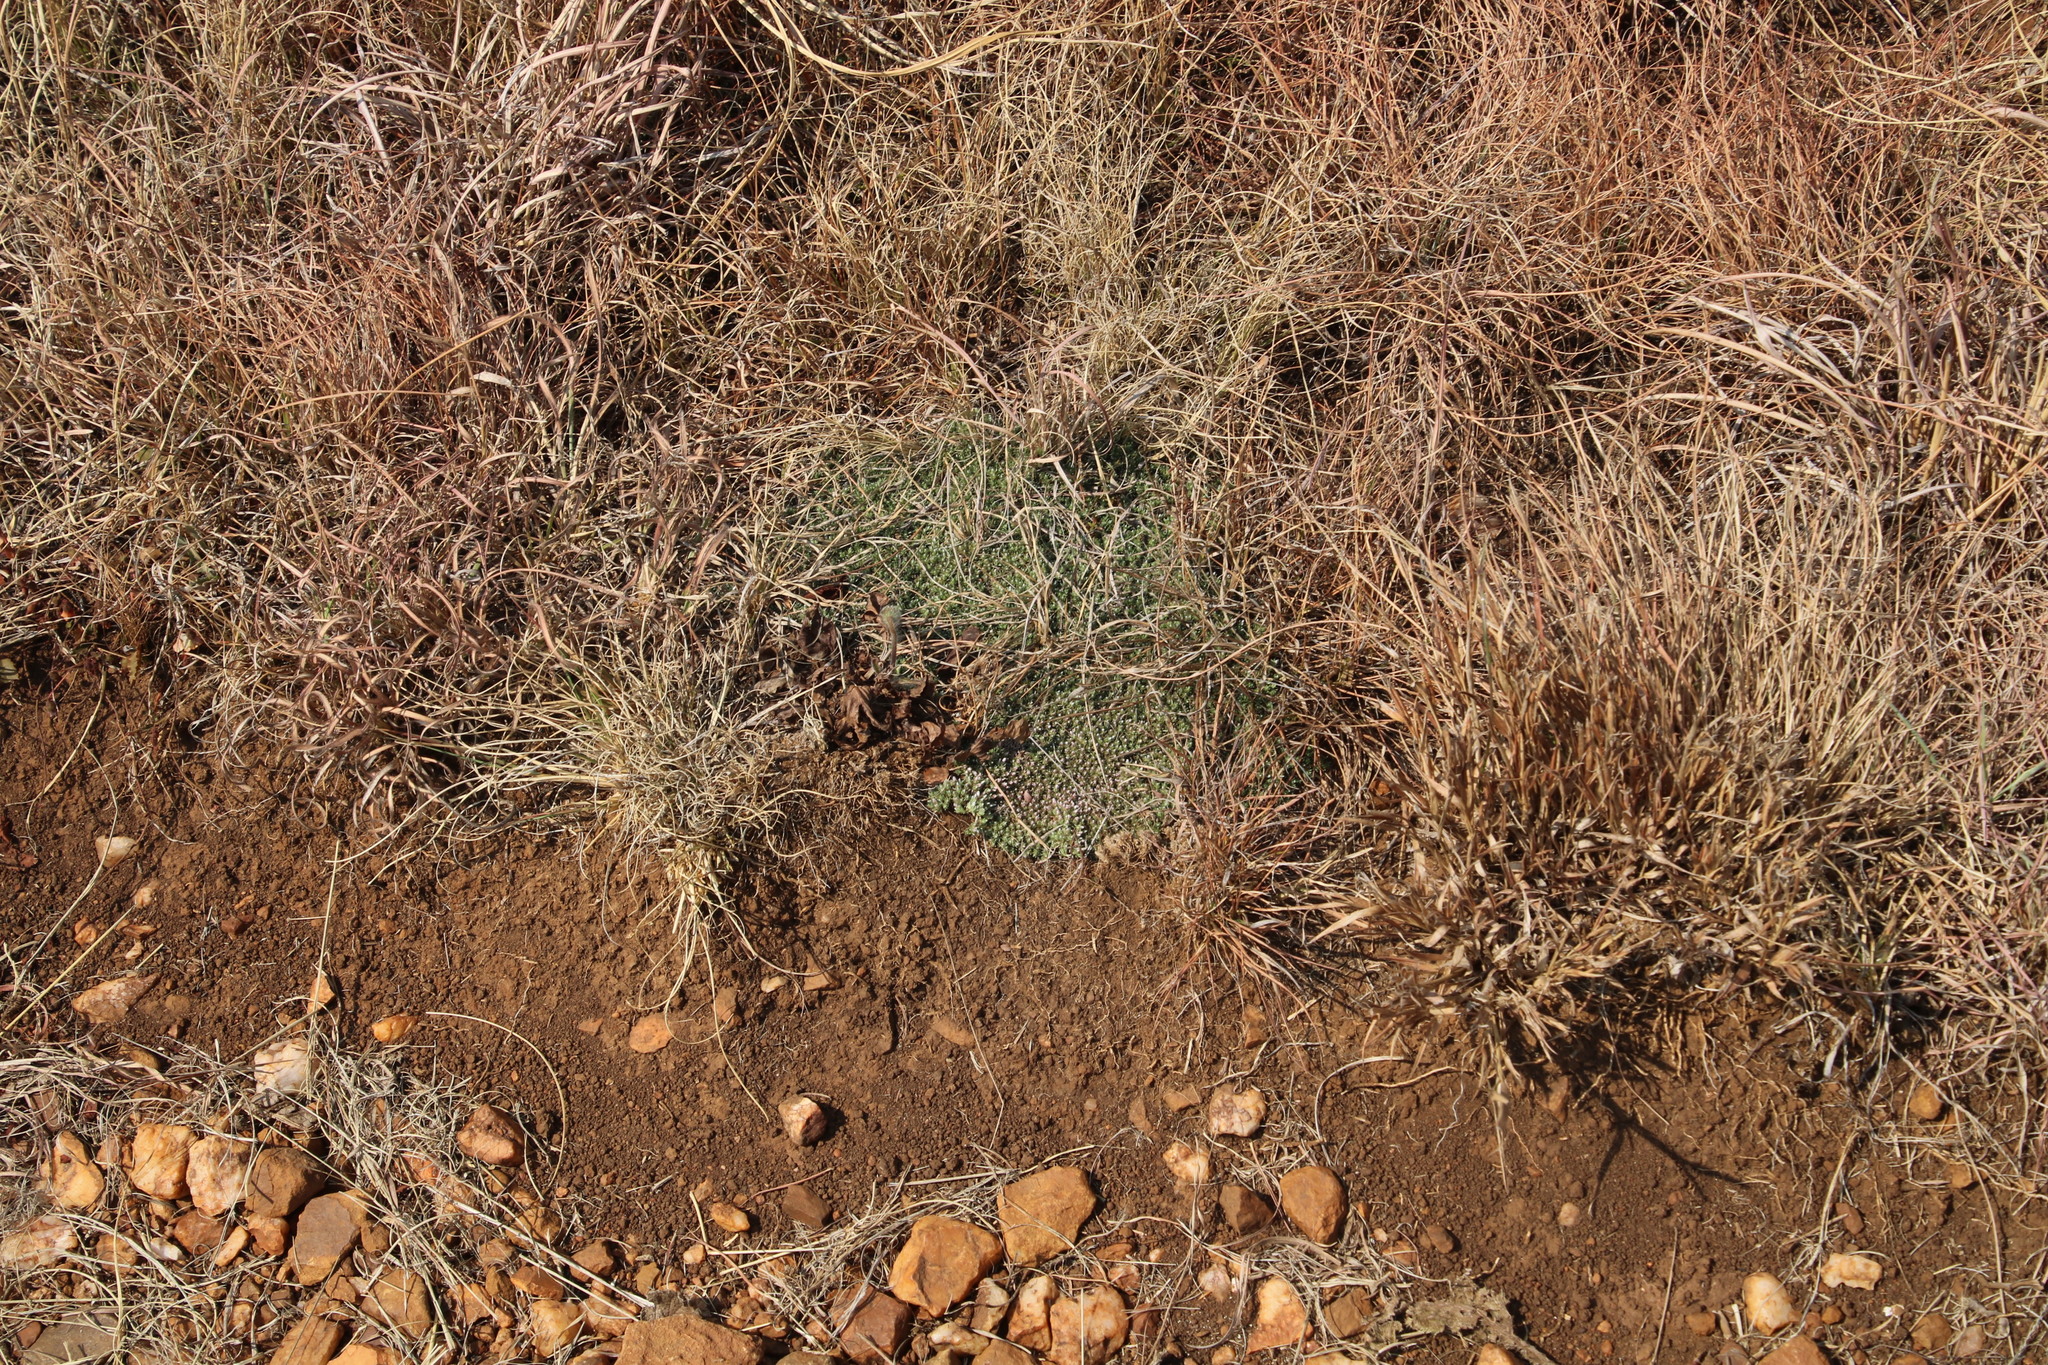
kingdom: Plantae
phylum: Tracheophyta
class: Magnoliopsida
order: Asterales
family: Asteraceae
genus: Helichrysum
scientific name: Helichrysum caespititium
